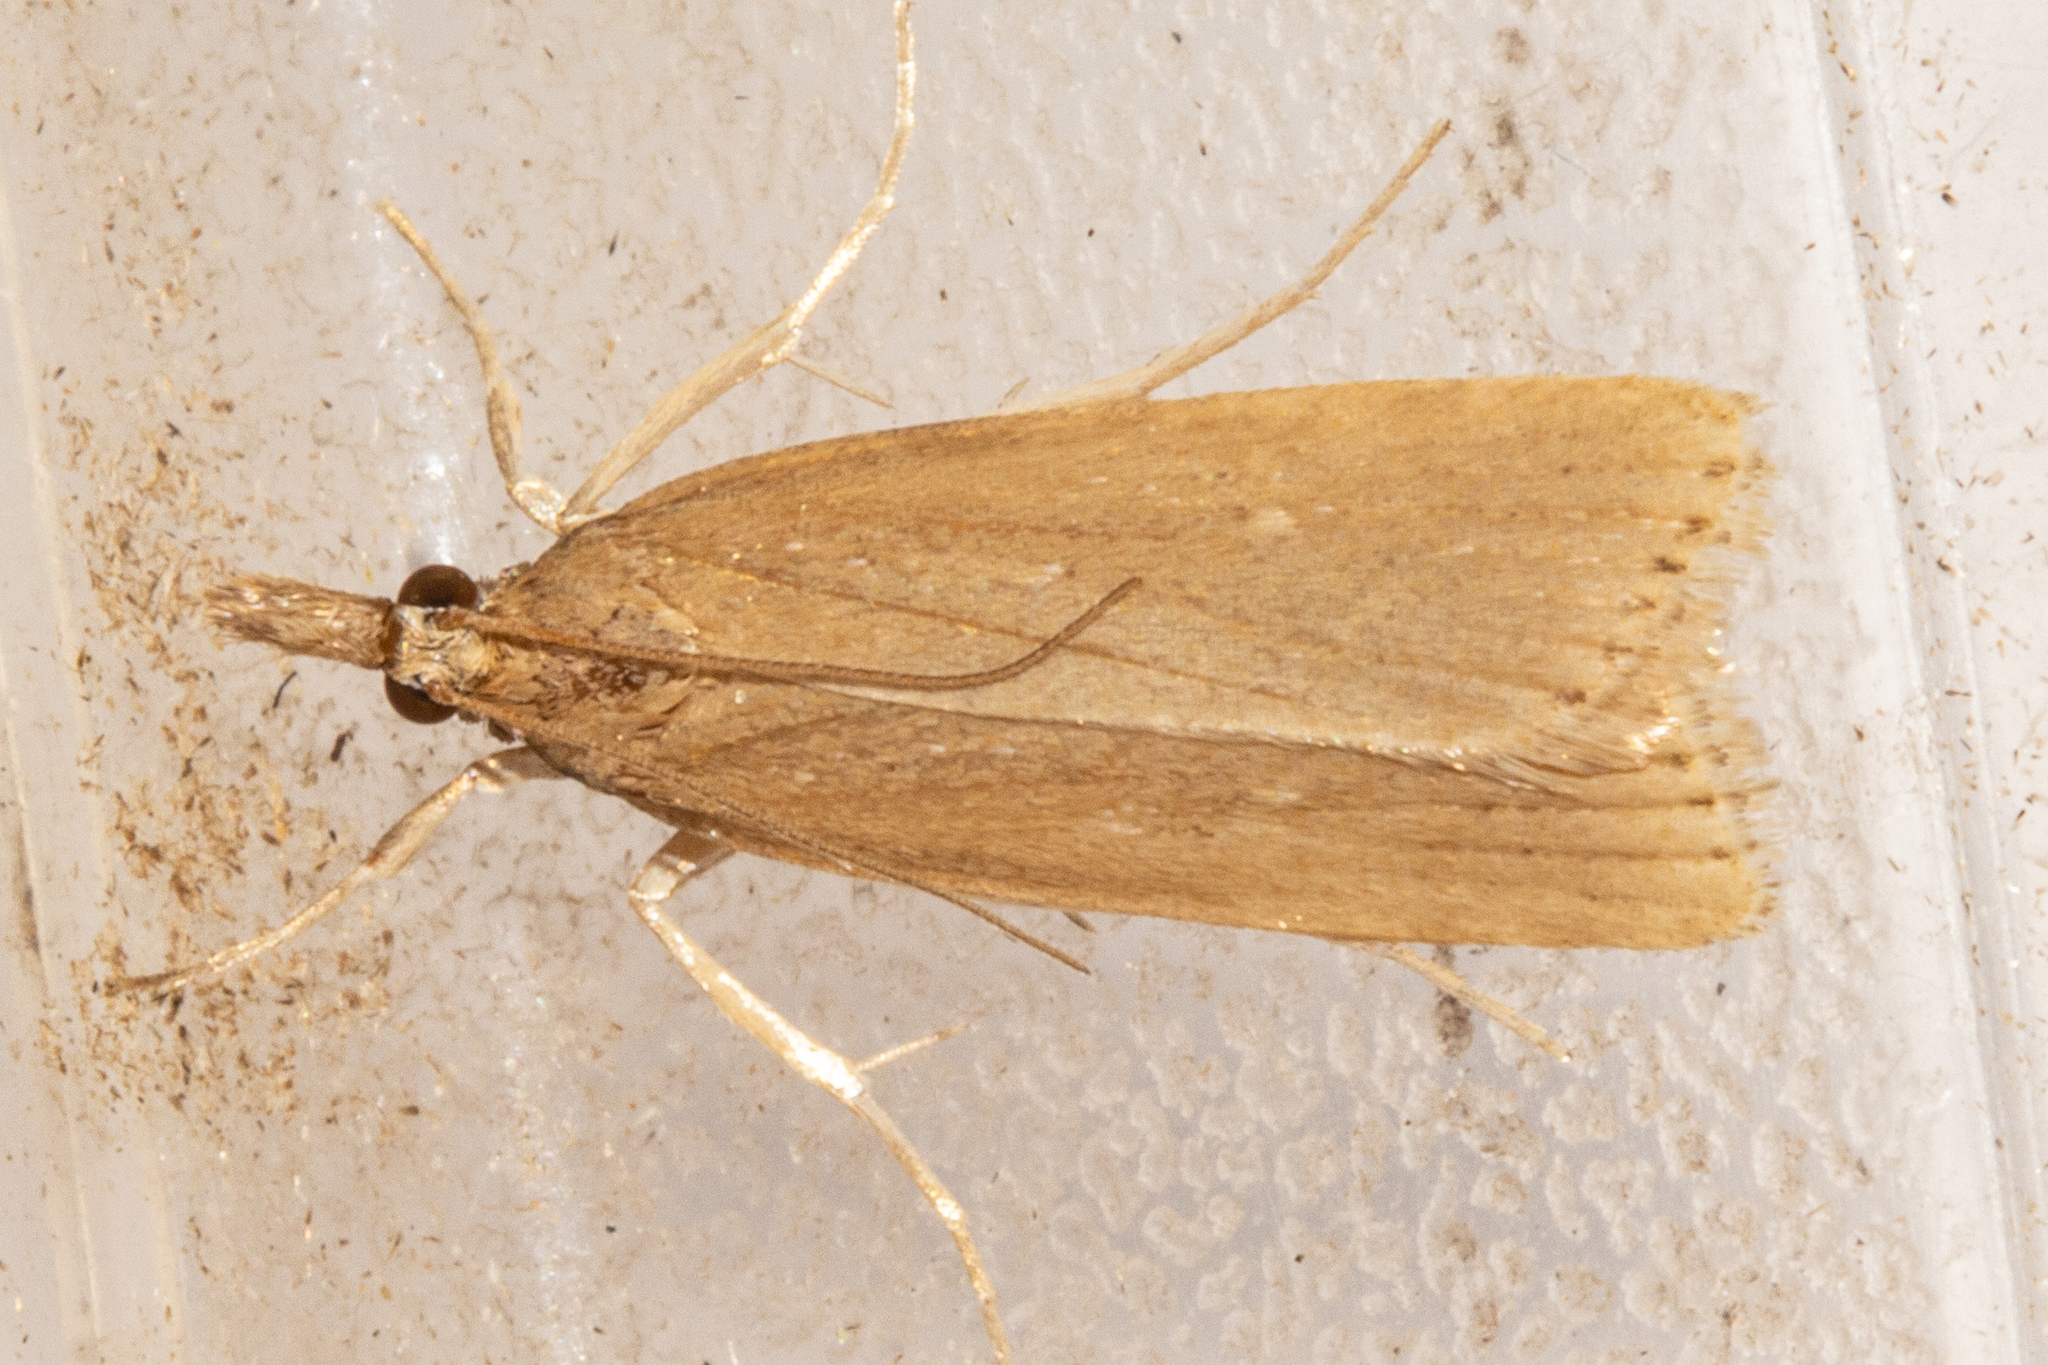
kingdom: Animalia
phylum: Arthropoda
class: Insecta
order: Lepidoptera
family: Crambidae
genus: Eudonia
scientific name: Eudonia octophora
